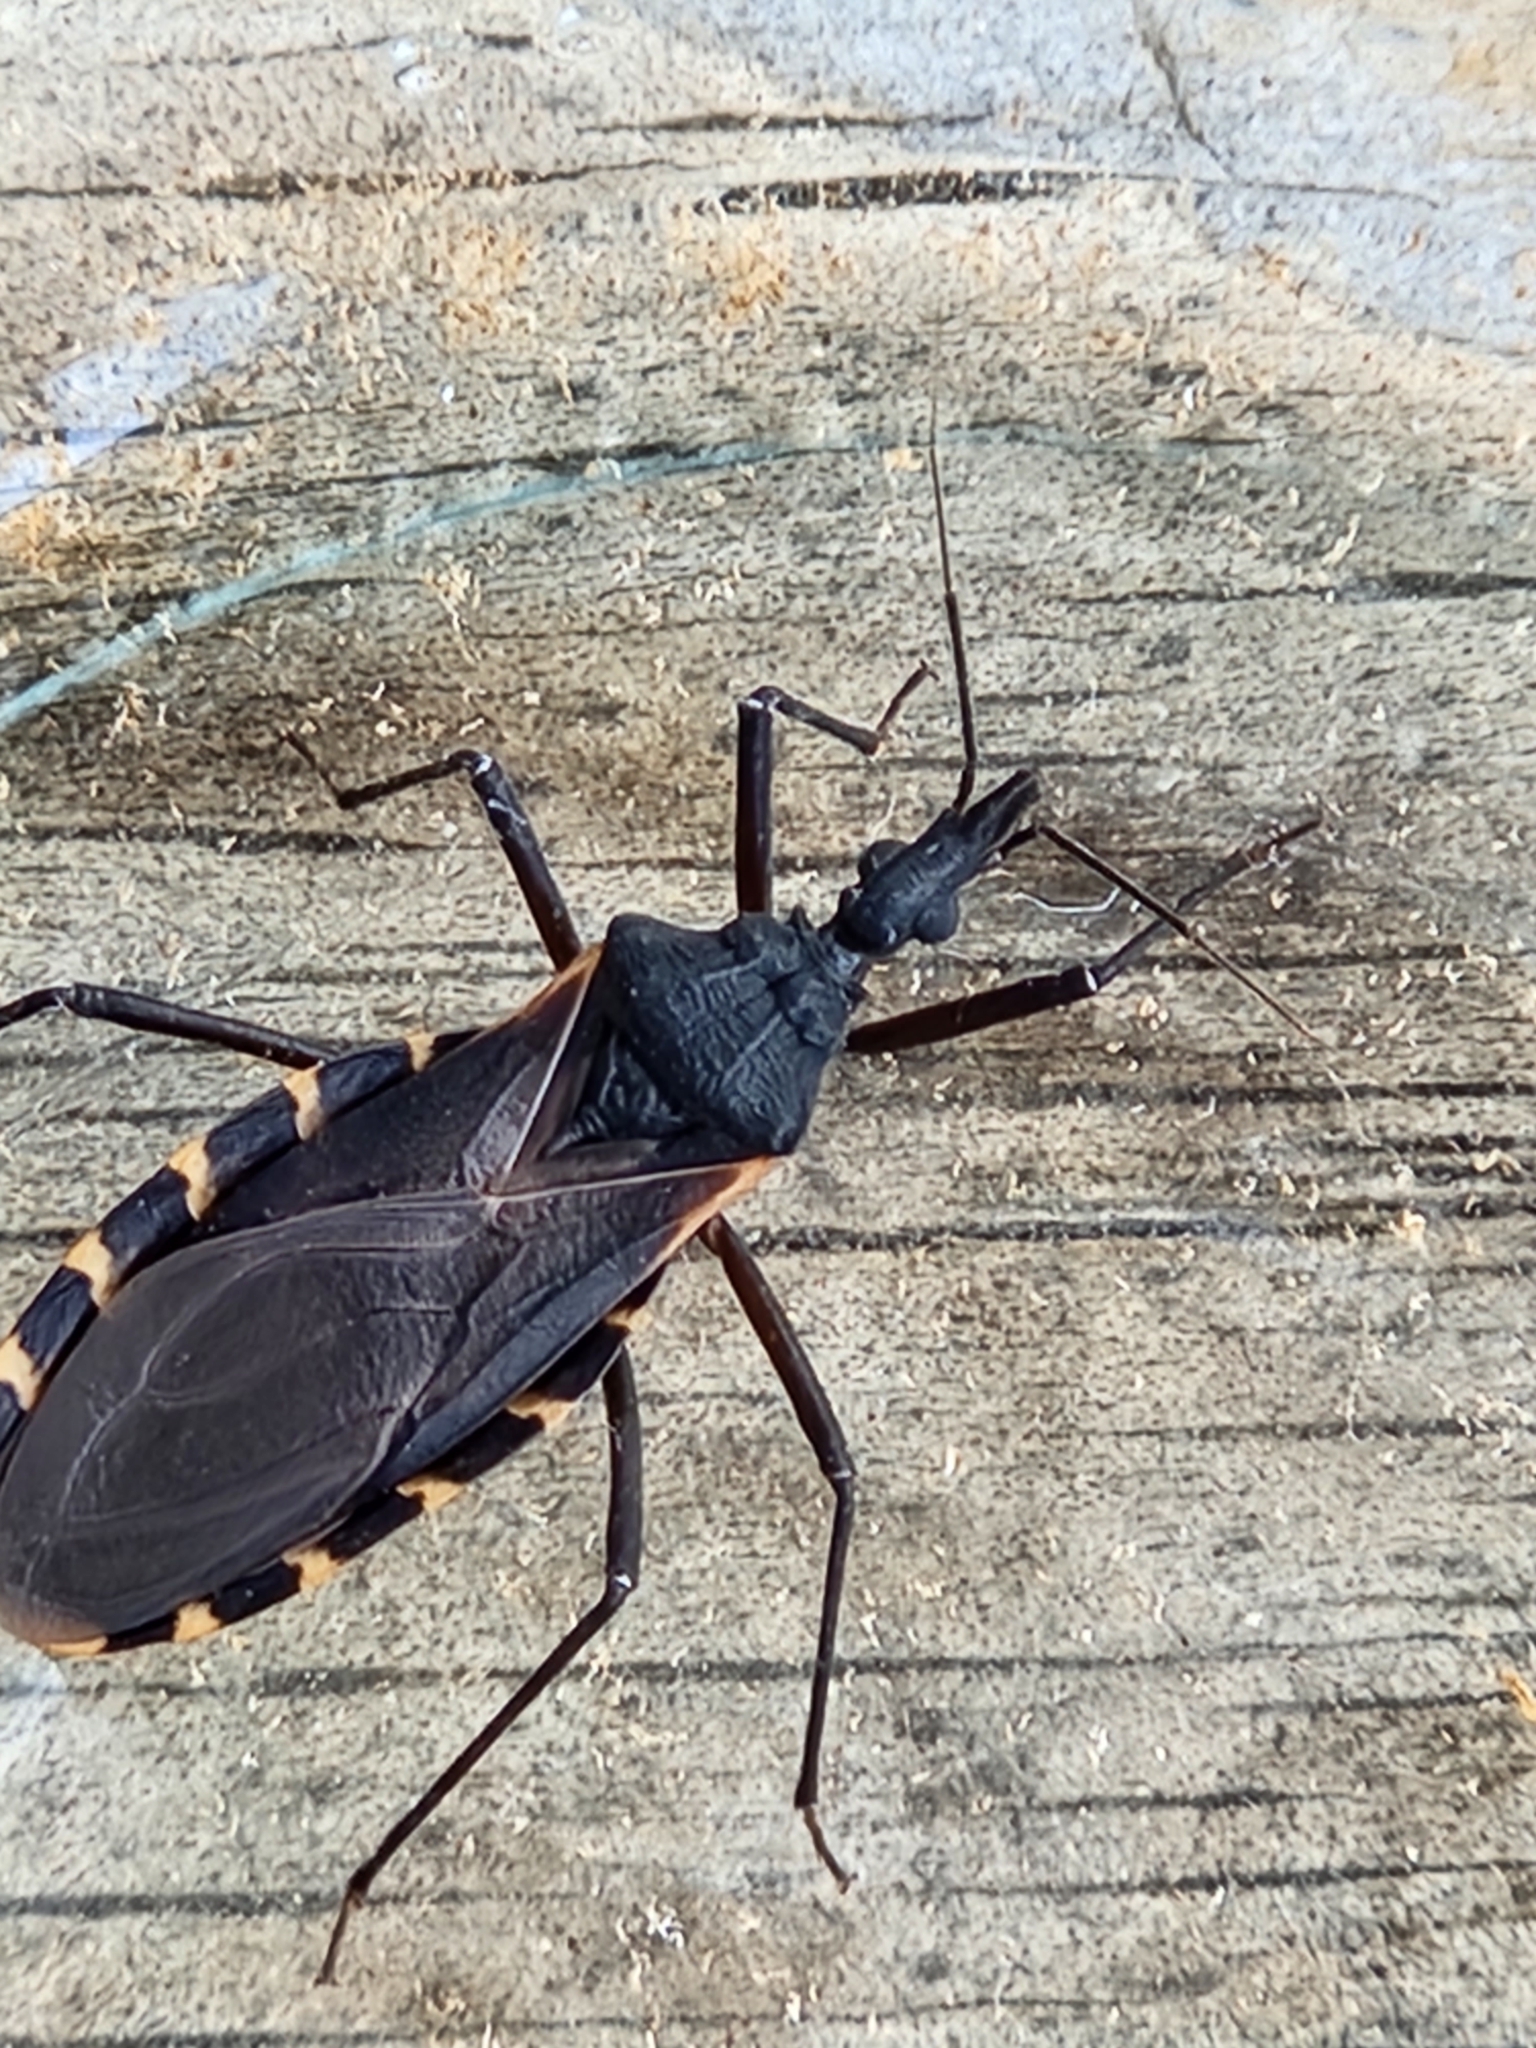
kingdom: Animalia
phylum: Arthropoda
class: Insecta
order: Hemiptera
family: Reduviidae
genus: Triatoma
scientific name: Triatoma gerstaeckeri
